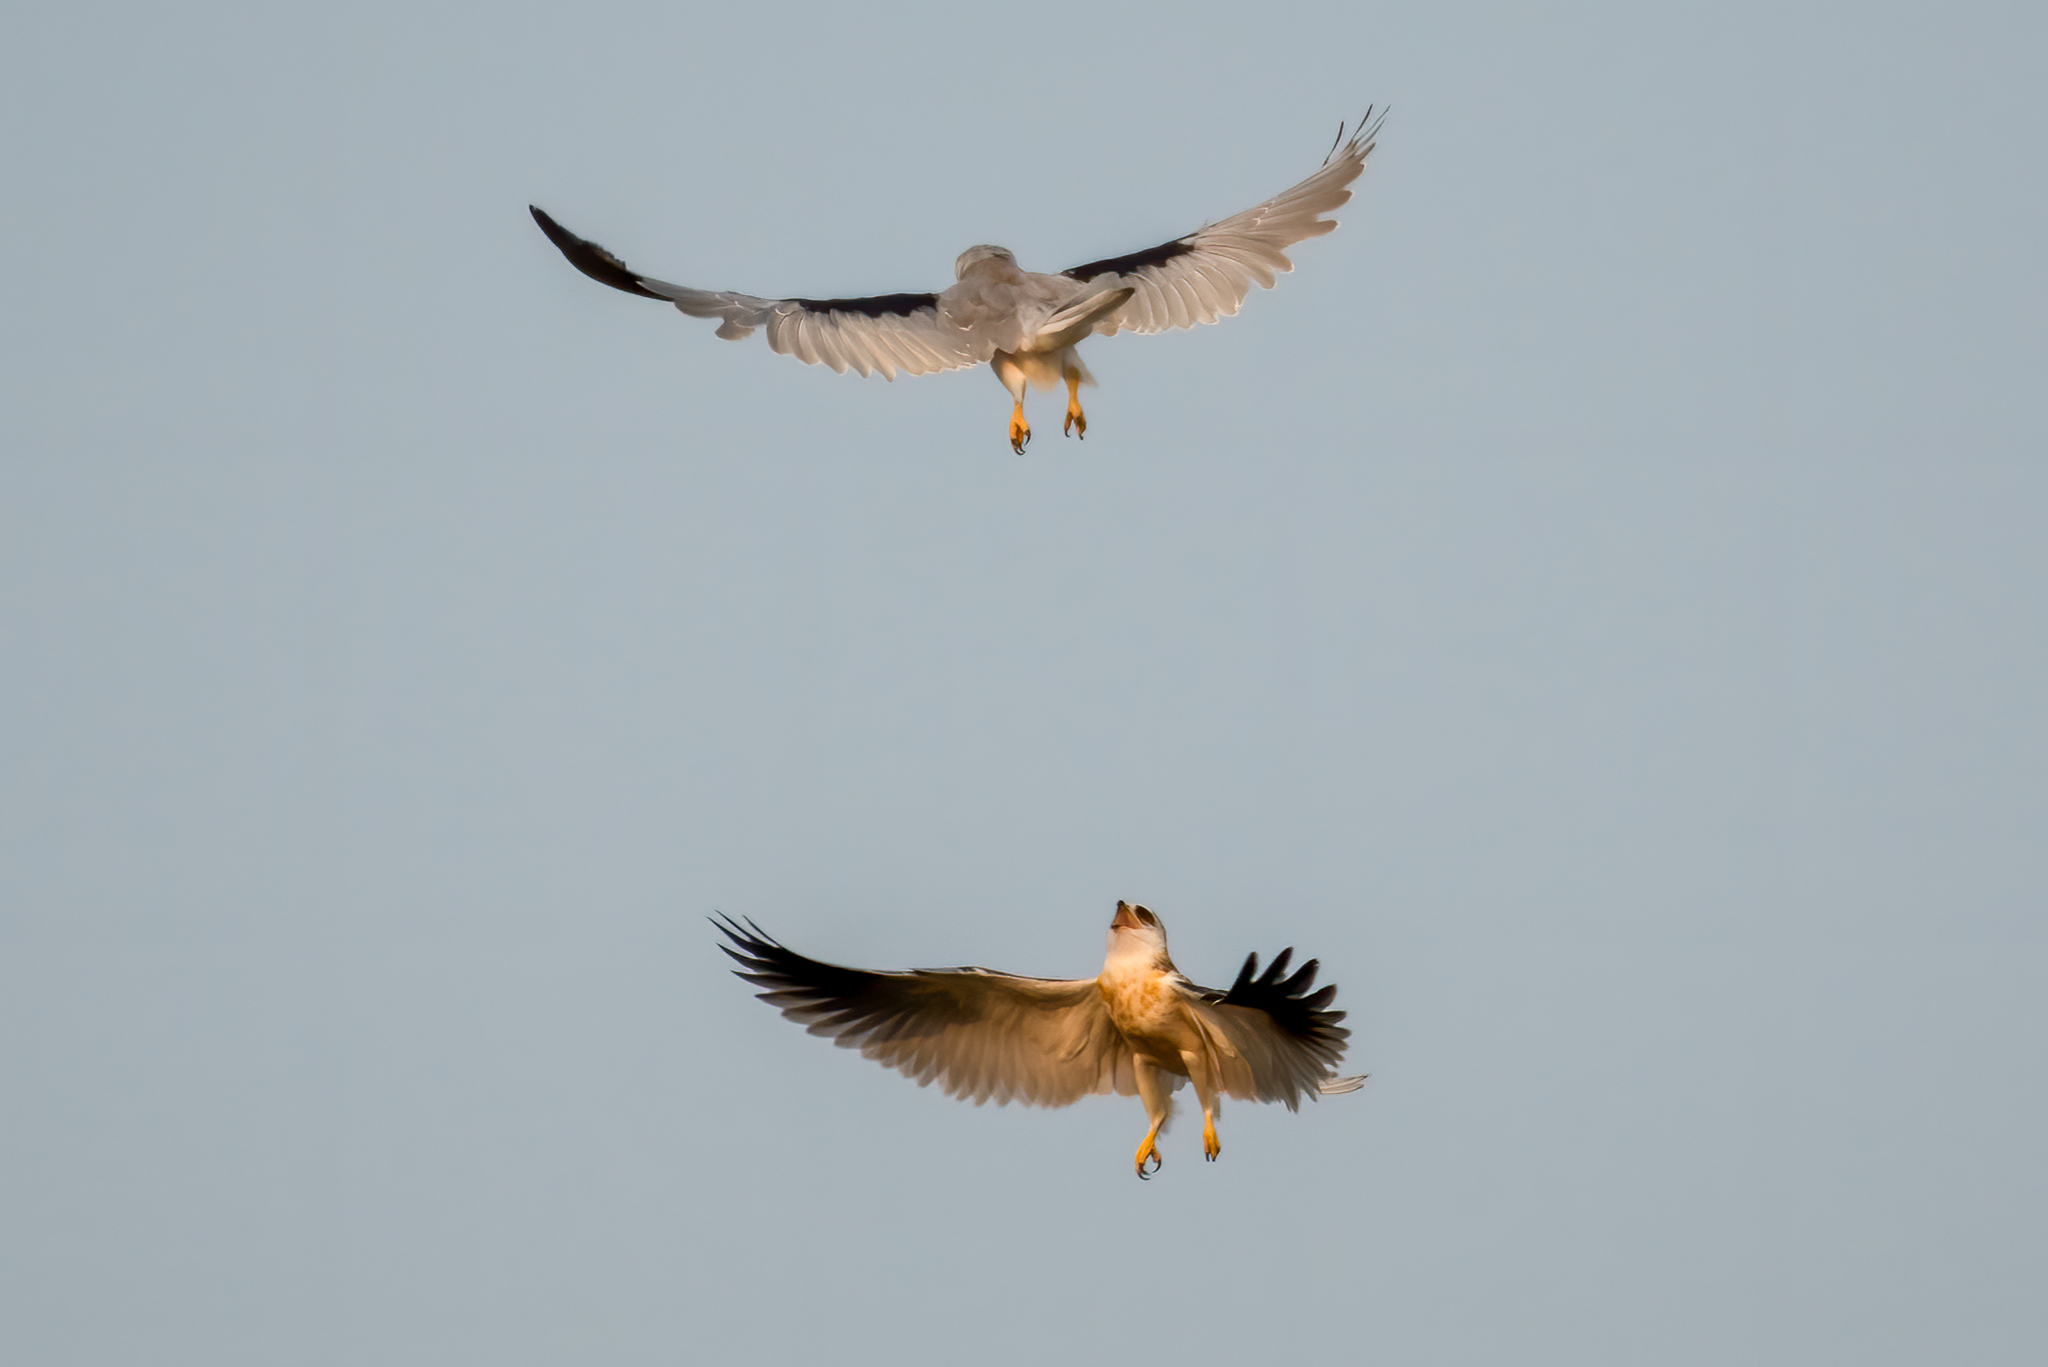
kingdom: Animalia
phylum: Chordata
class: Aves
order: Accipitriformes
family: Accipitridae
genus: Elanus
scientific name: Elanus leucurus
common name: White-tailed kite
